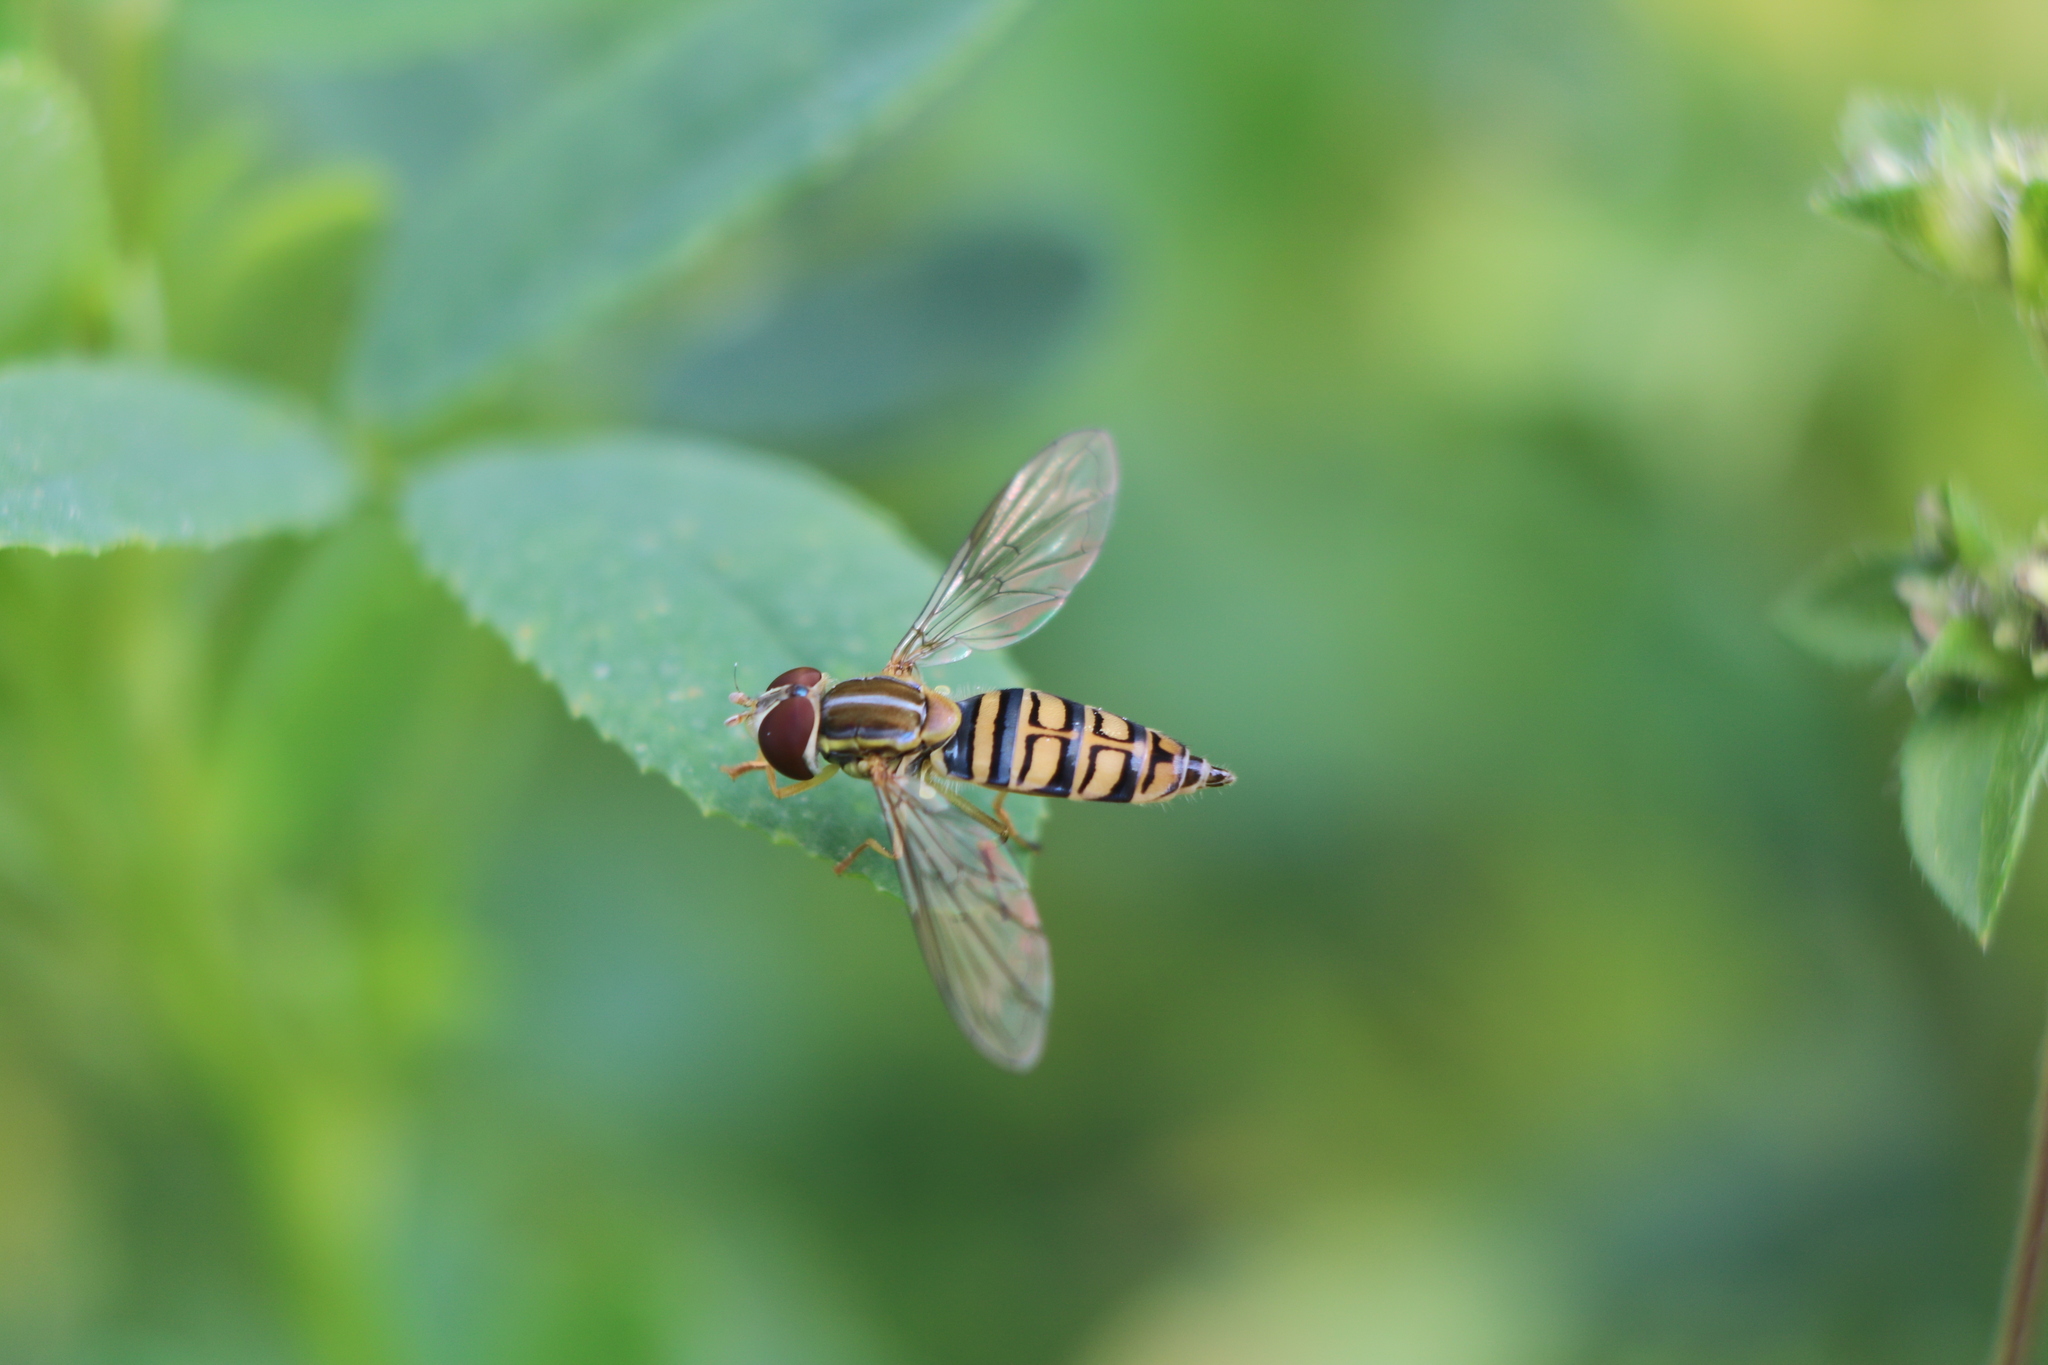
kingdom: Animalia
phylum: Arthropoda
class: Insecta
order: Diptera
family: Syrphidae
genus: Toxomerus
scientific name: Toxomerus politus
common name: Maize calligrapher
